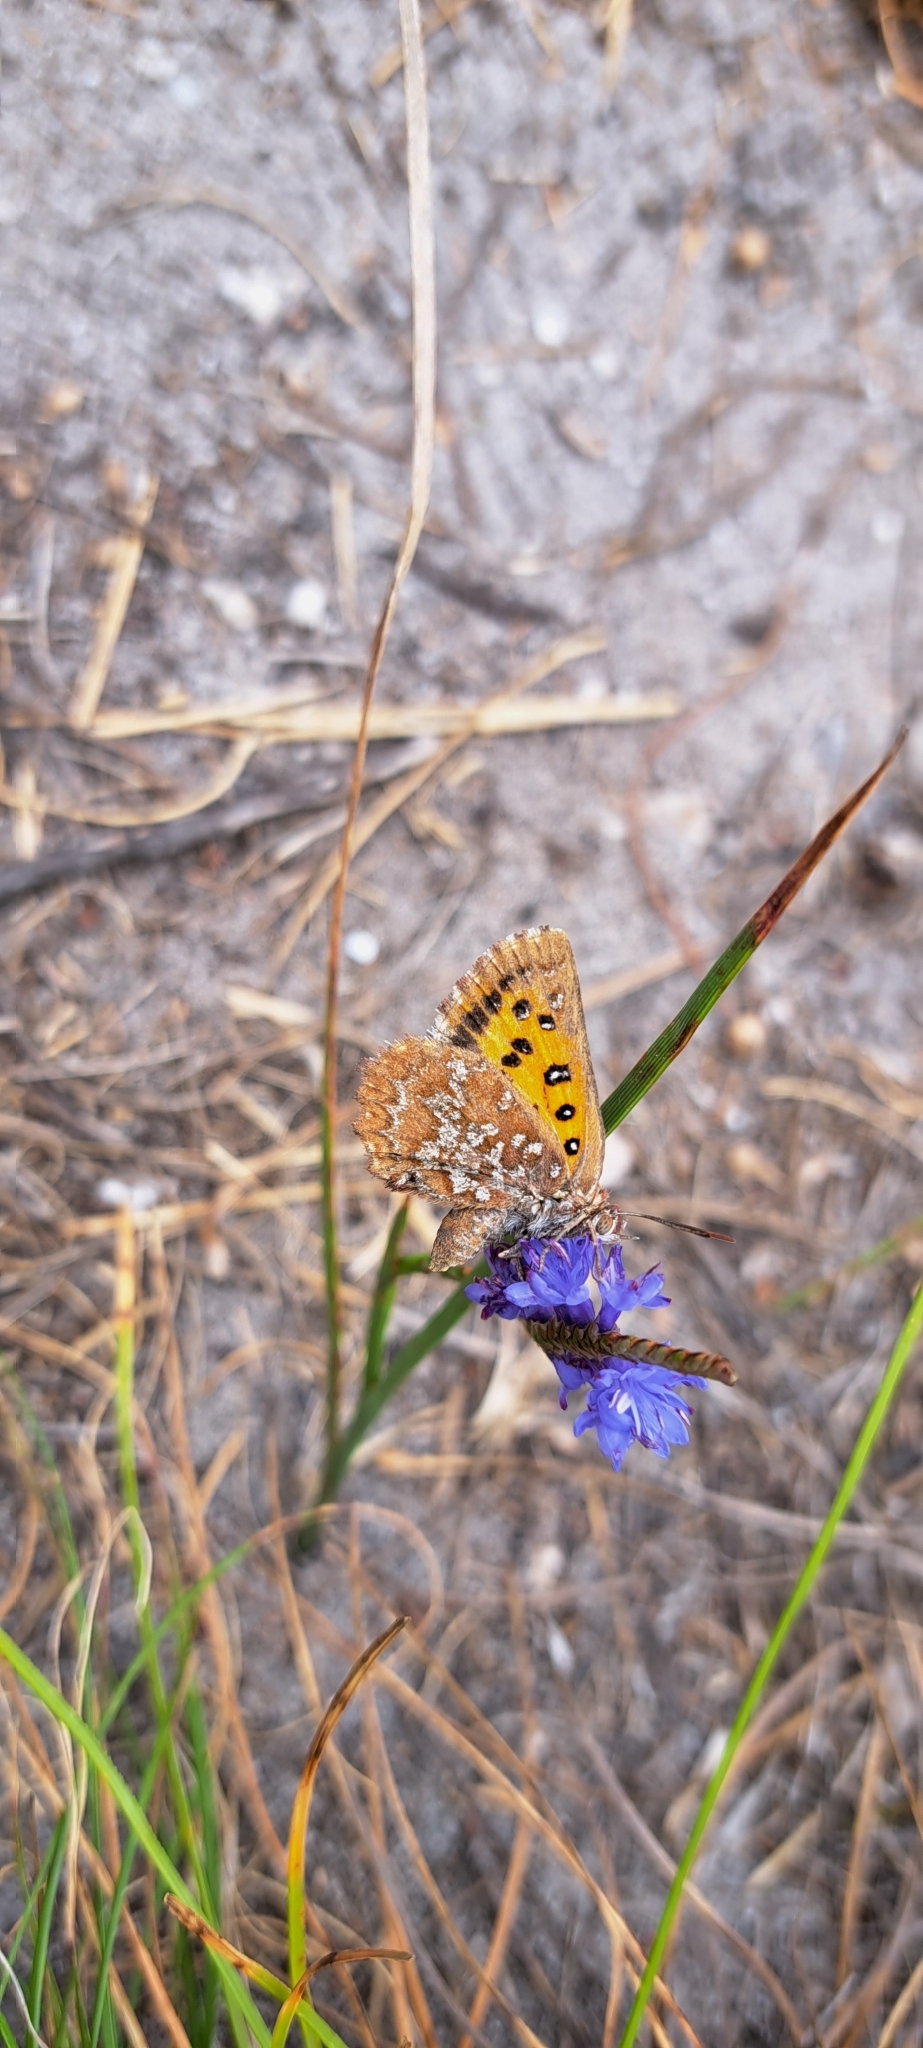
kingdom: Animalia
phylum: Arthropoda
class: Insecta
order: Lepidoptera
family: Lycaenidae
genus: Aloeides
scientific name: Aloeides egerides
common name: Red hill copper
